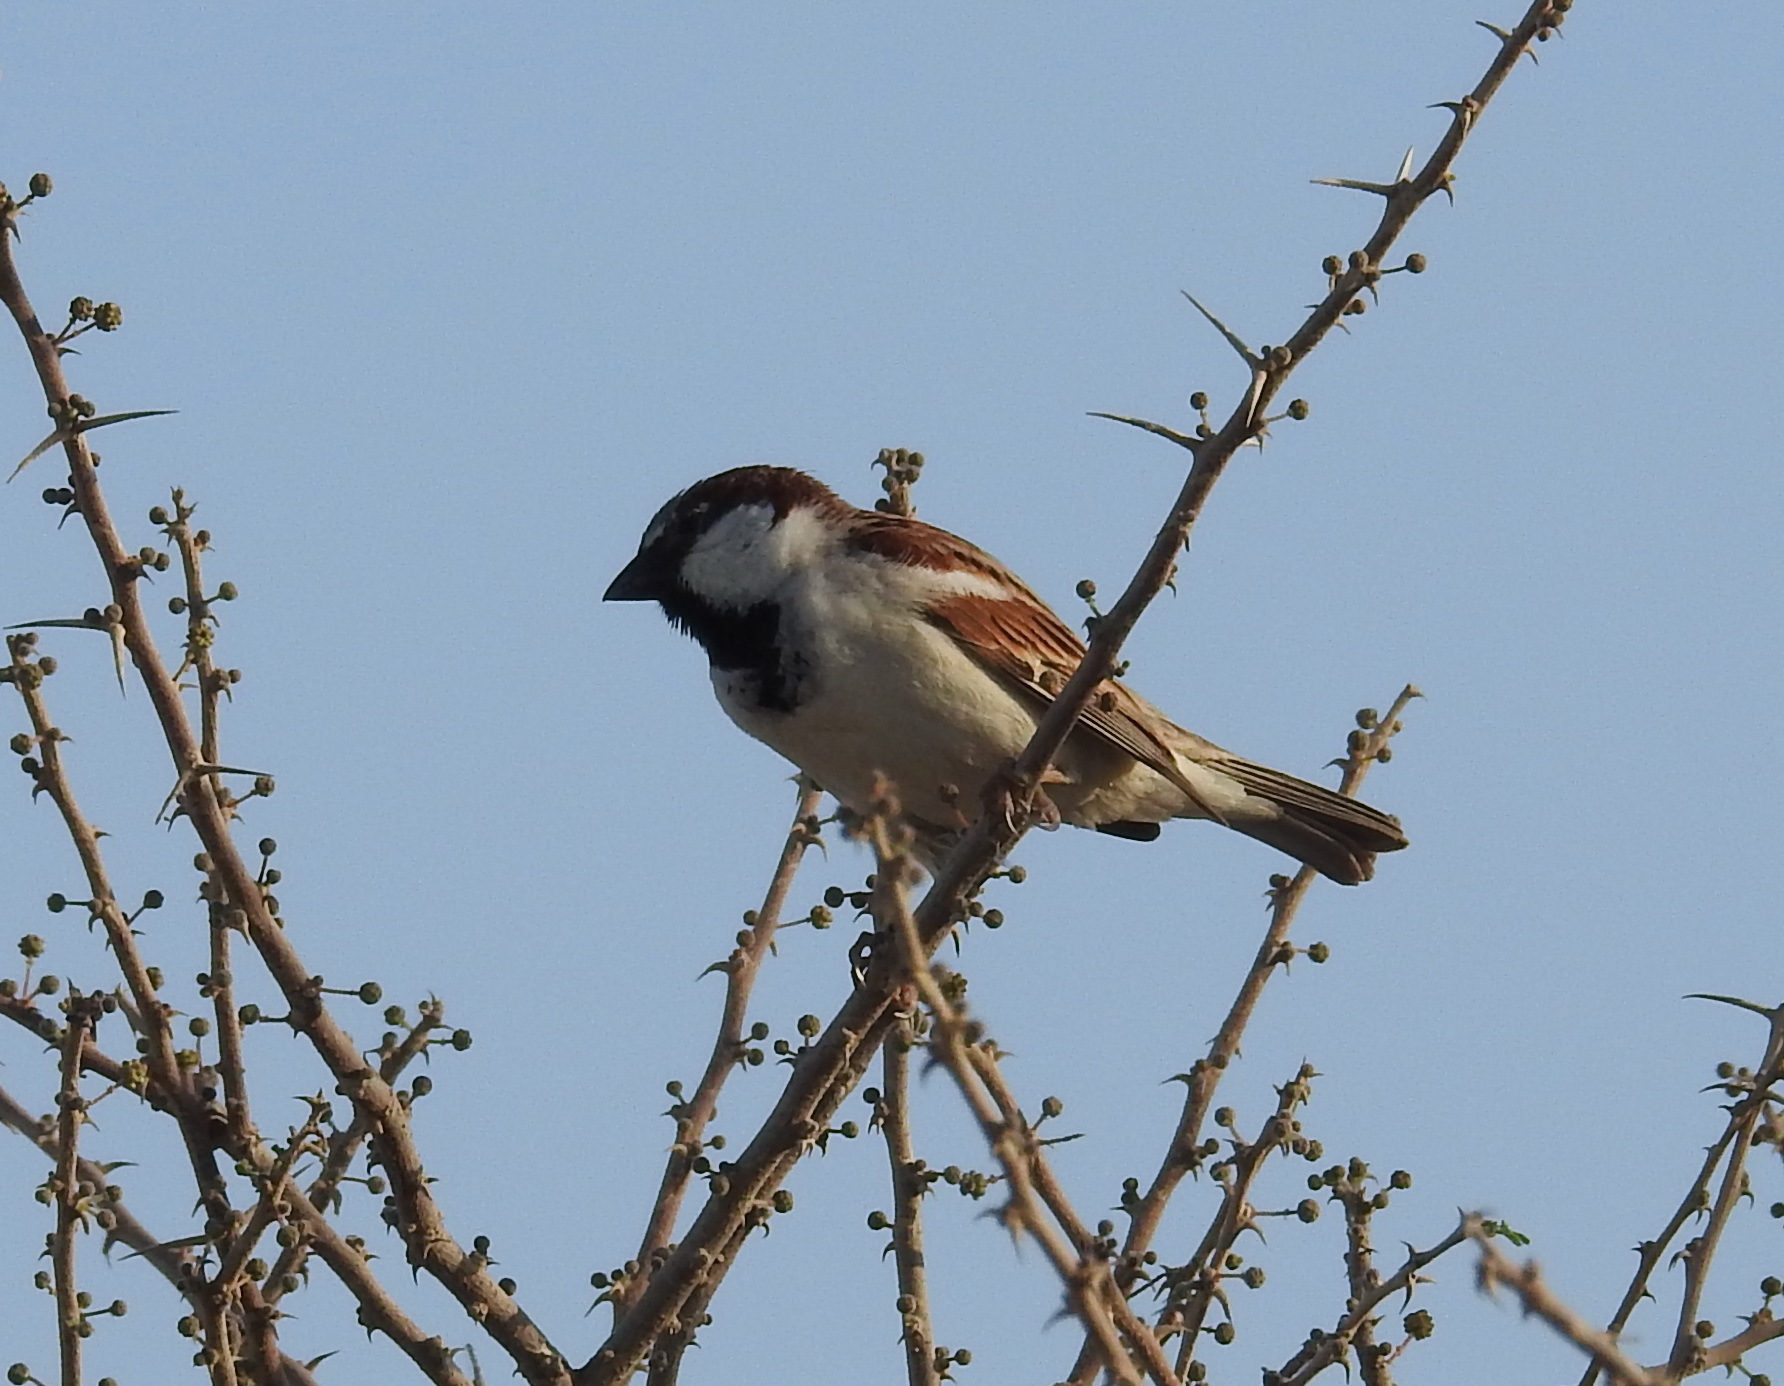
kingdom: Animalia
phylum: Chordata
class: Aves
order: Passeriformes
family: Passeridae
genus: Passer
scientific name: Passer domesticus
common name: House sparrow
